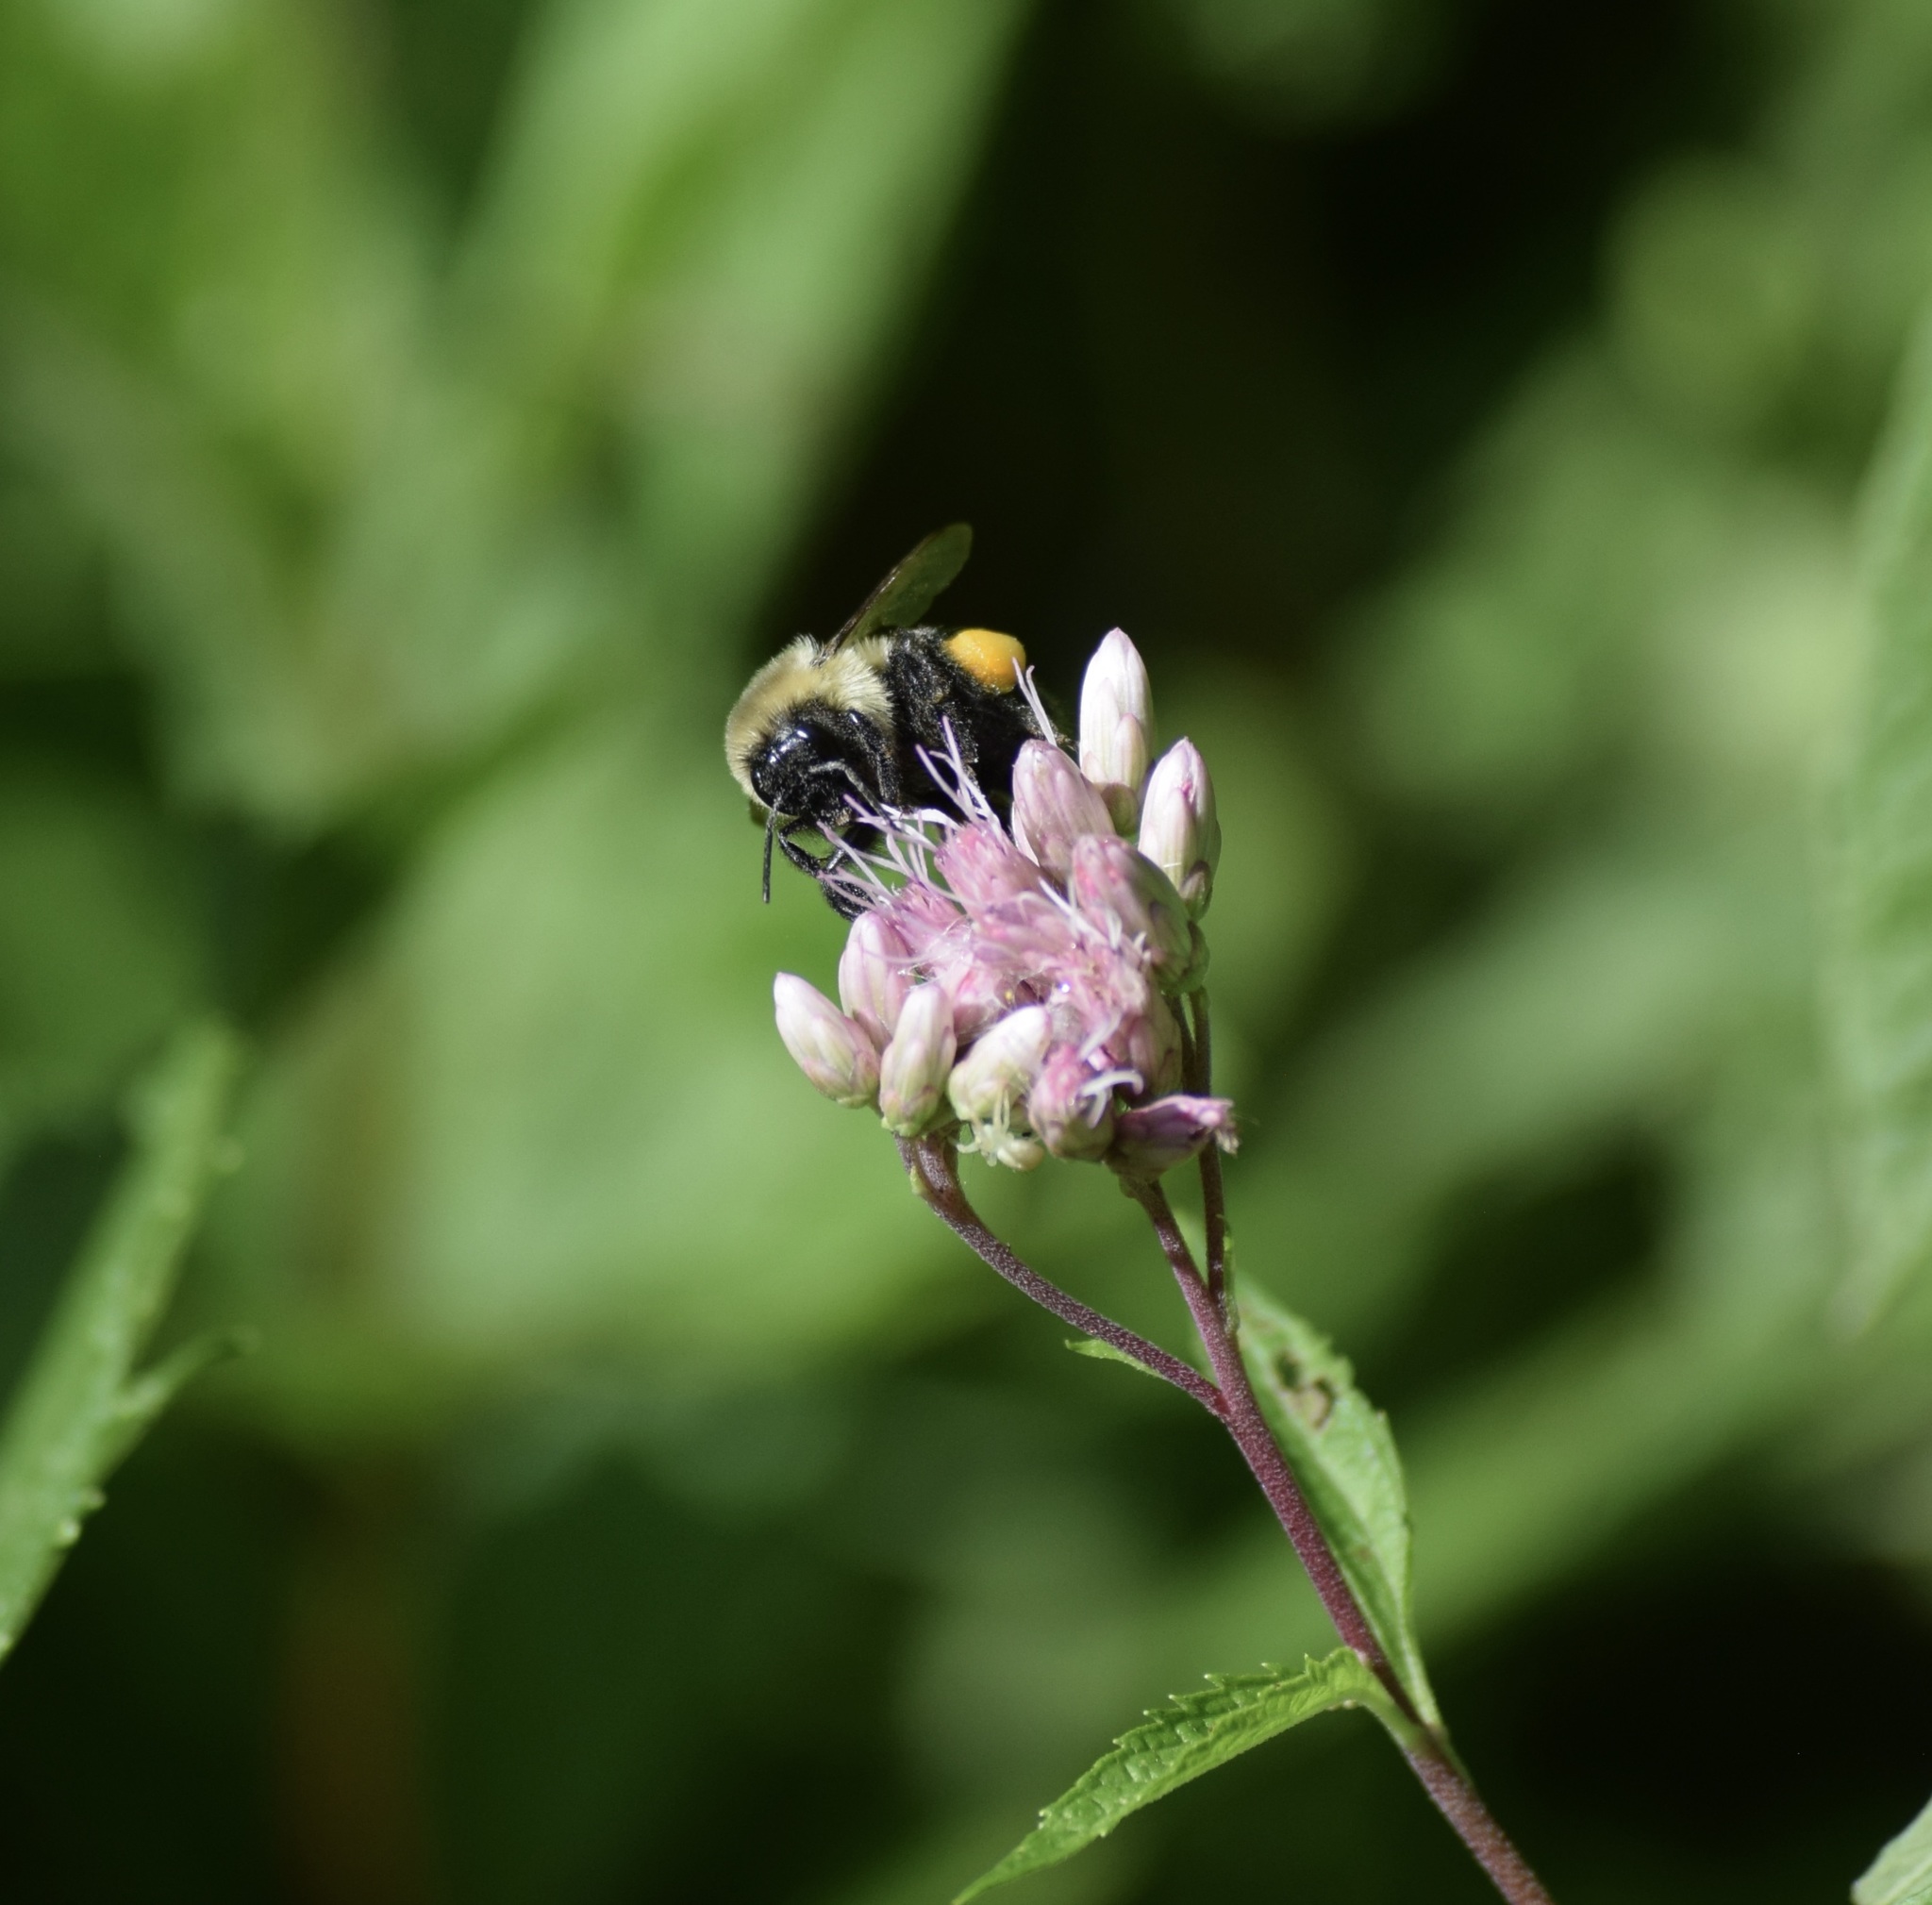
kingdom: Animalia
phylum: Arthropoda
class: Insecta
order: Hymenoptera
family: Apidae
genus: Bombus
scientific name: Bombus impatiens
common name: Common eastern bumble bee
